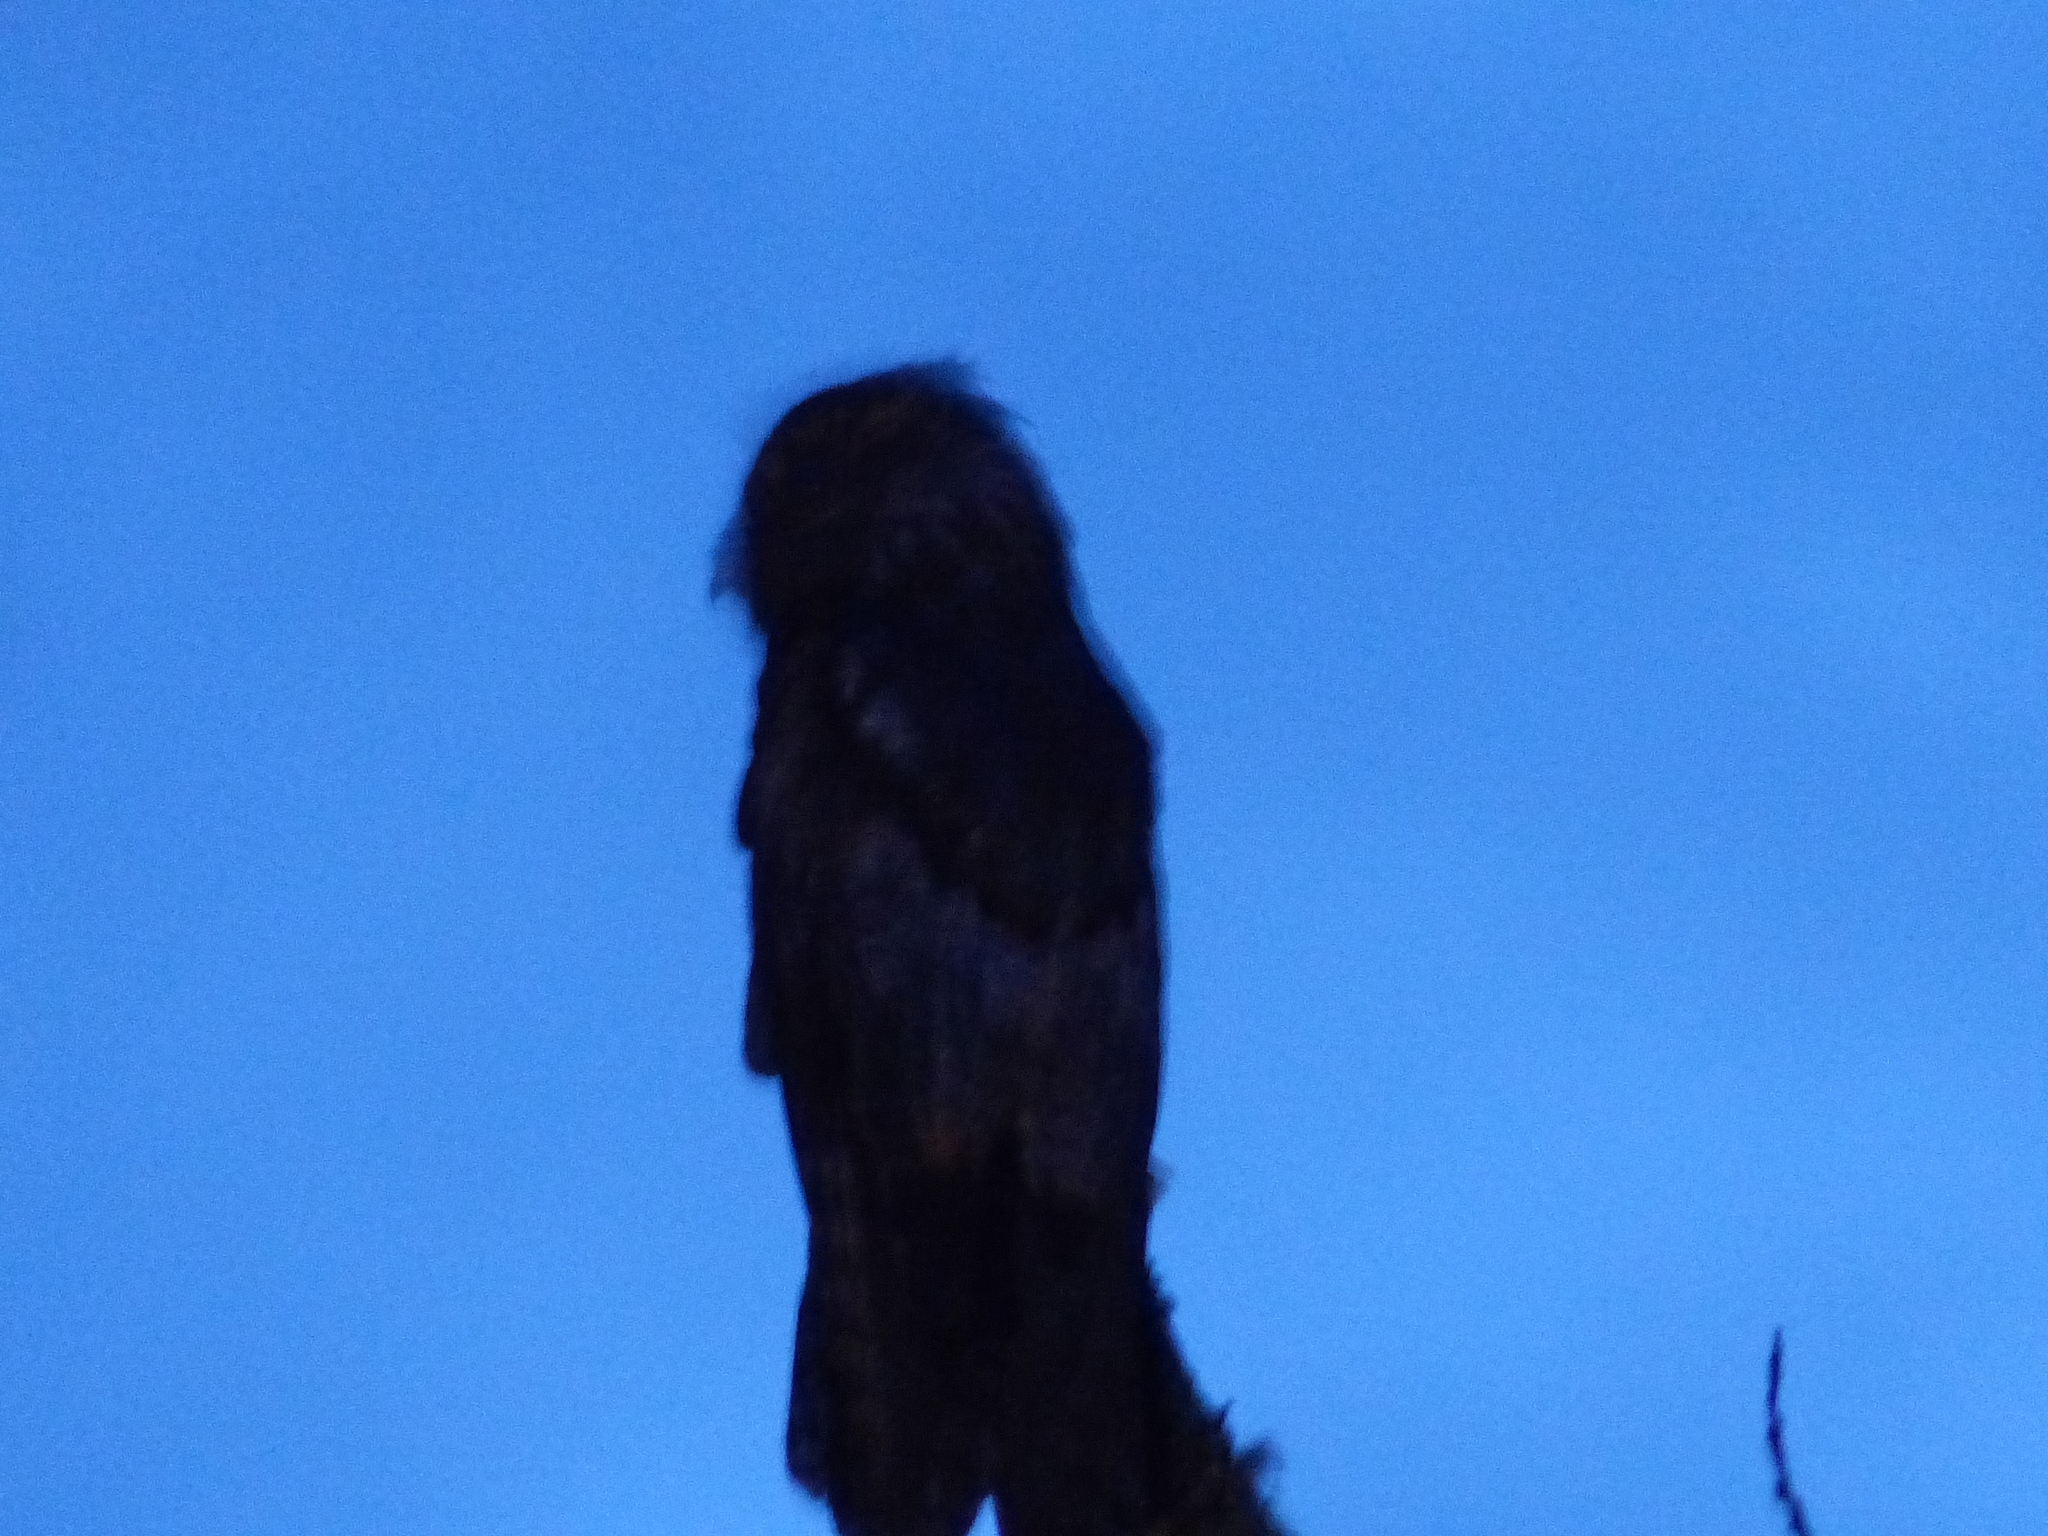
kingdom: Animalia
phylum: Chordata
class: Aves
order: Nyctibiiformes
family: Nyctibiidae
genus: Nyctibius
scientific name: Nyctibius griseus
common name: Common potoo
